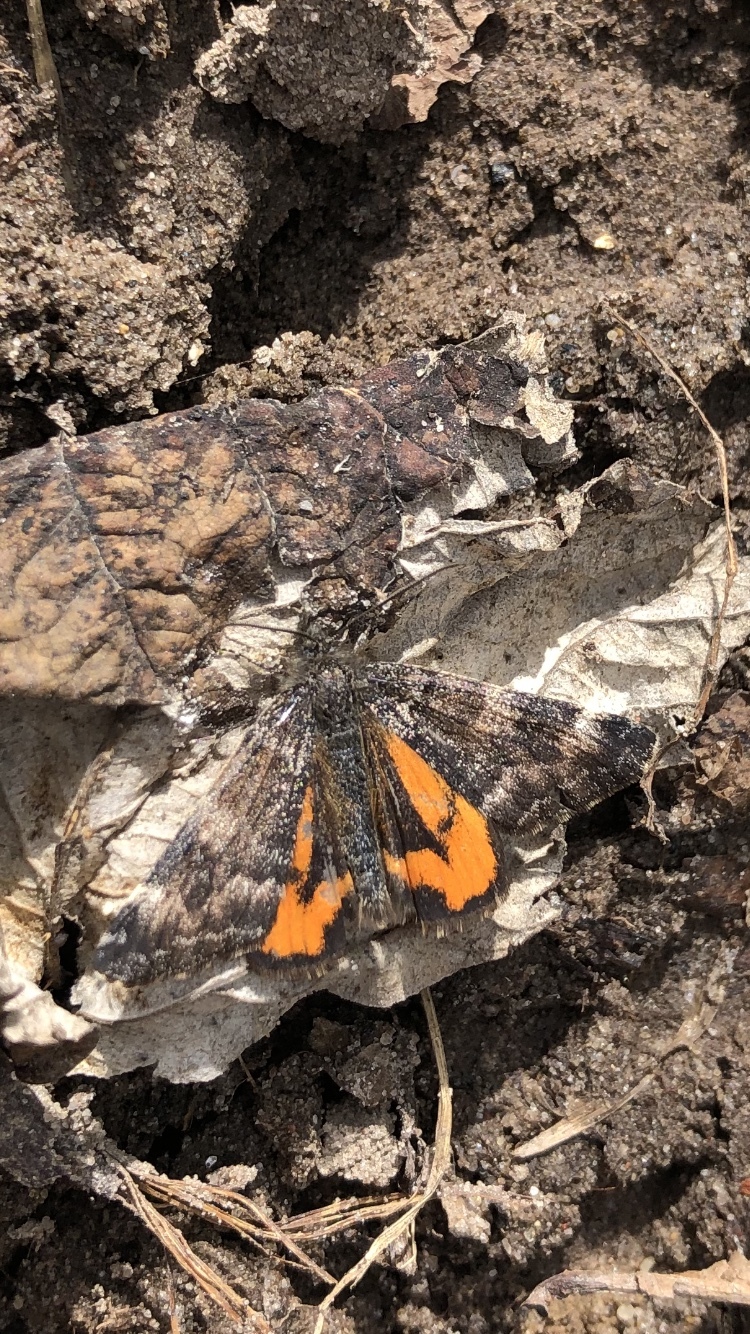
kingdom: Animalia
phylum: Arthropoda
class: Insecta
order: Lepidoptera
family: Geometridae
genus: Archiearis
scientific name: Archiearis parthenias
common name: Orange underwing
